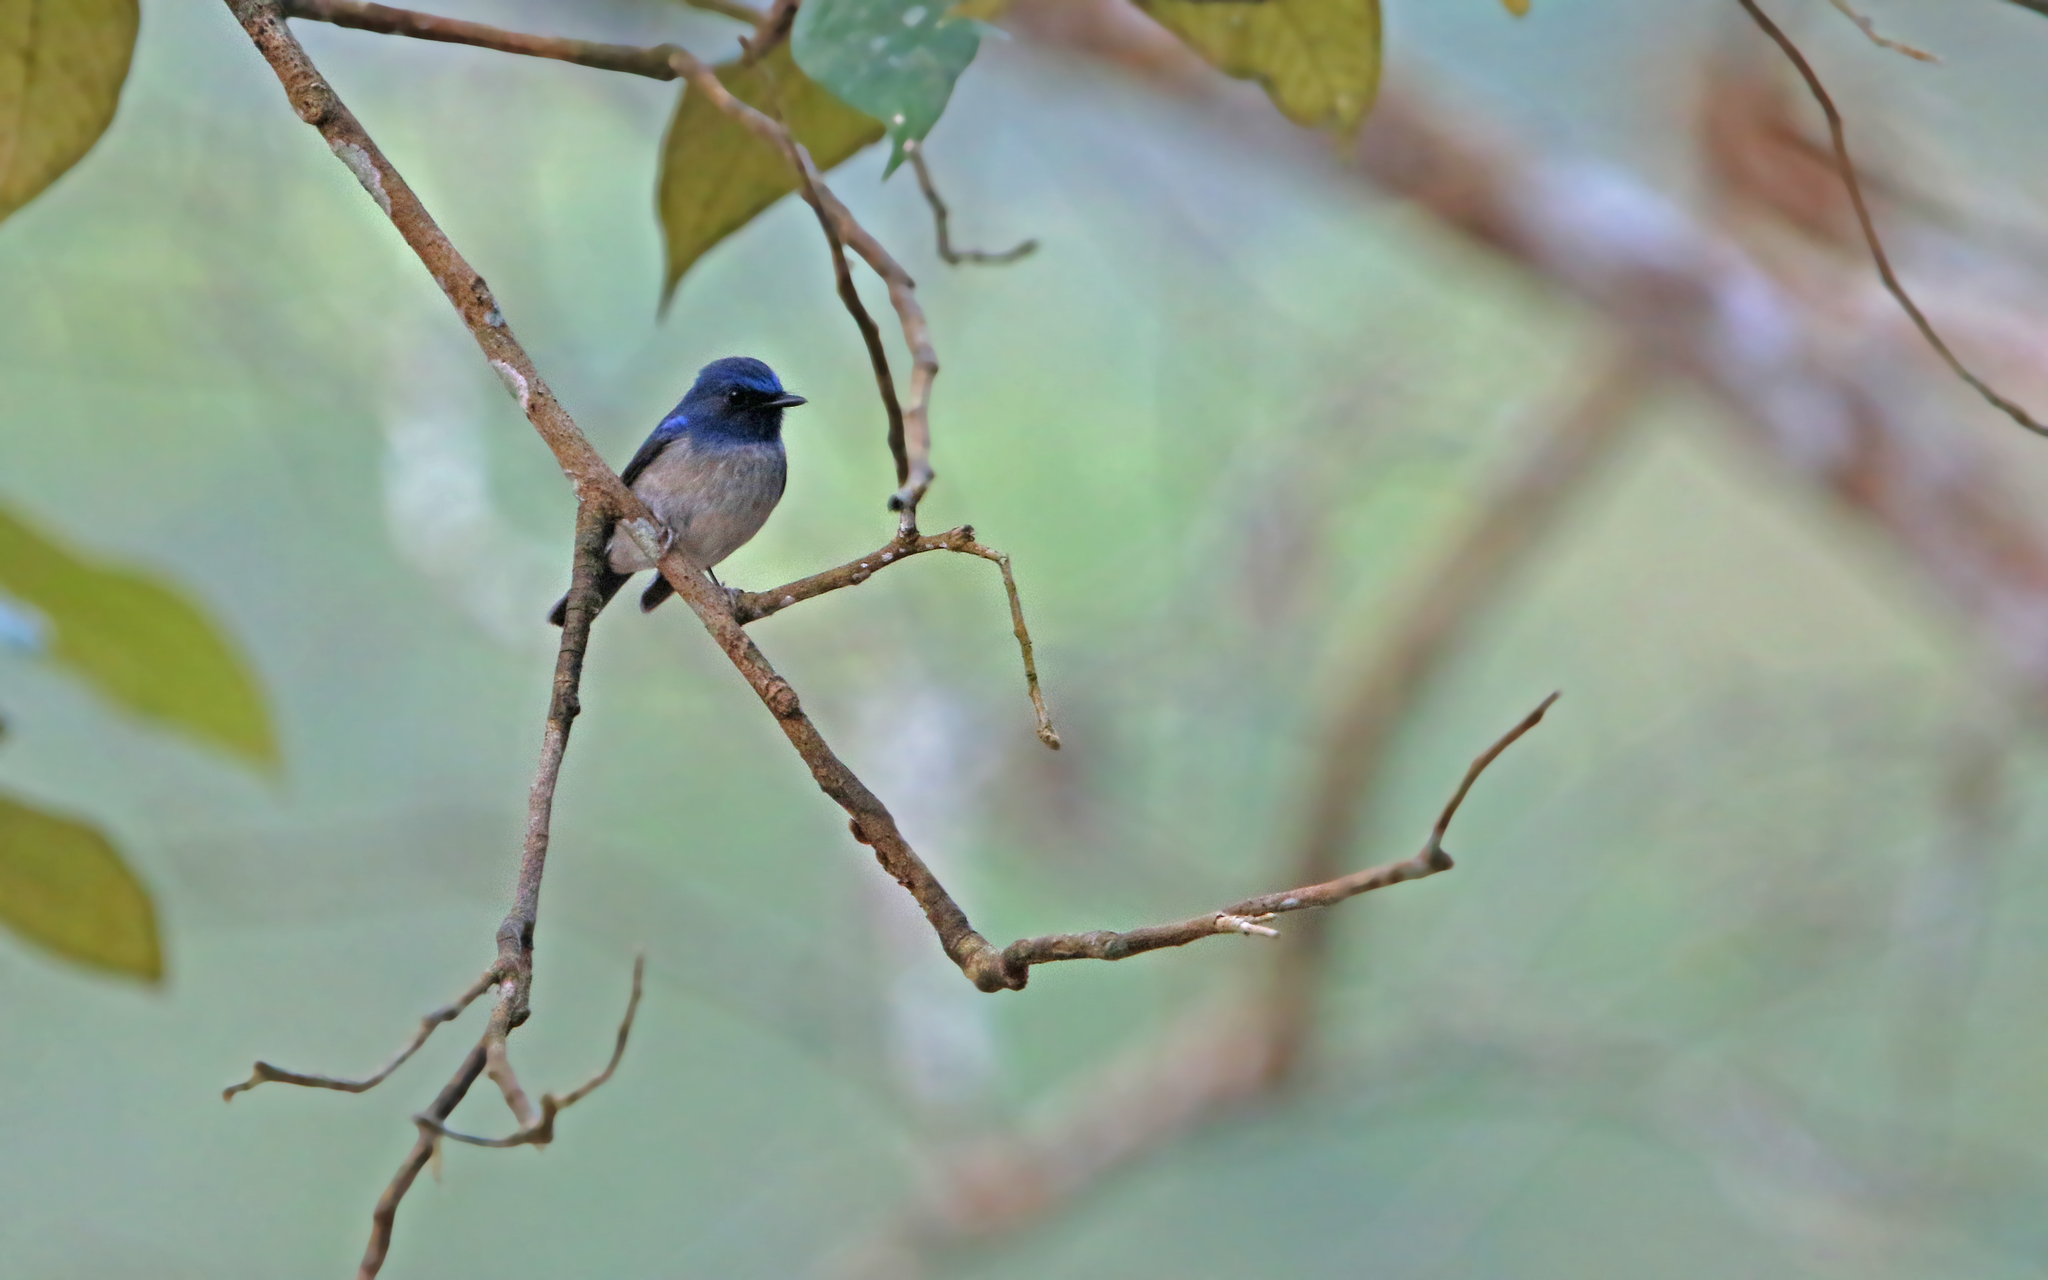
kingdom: Animalia
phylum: Chordata
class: Aves
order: Passeriformes
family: Muscicapidae
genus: Cyornis
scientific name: Cyornis hainanus
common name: Hainan blue flycatcher
